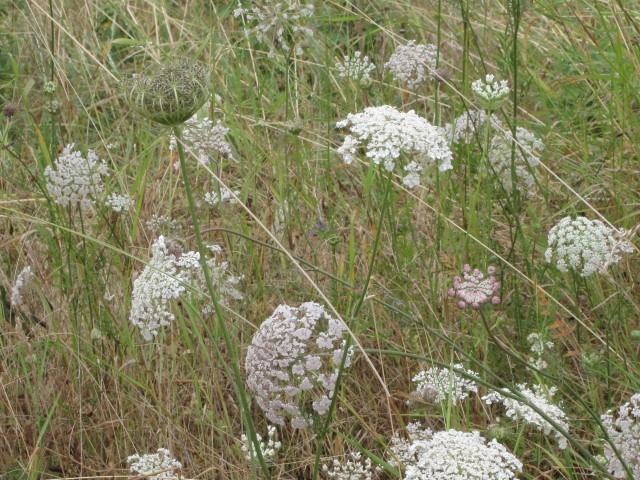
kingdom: Plantae
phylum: Tracheophyta
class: Magnoliopsida
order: Apiales
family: Apiaceae
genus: Daucus
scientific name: Daucus carota
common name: Wild carrot
